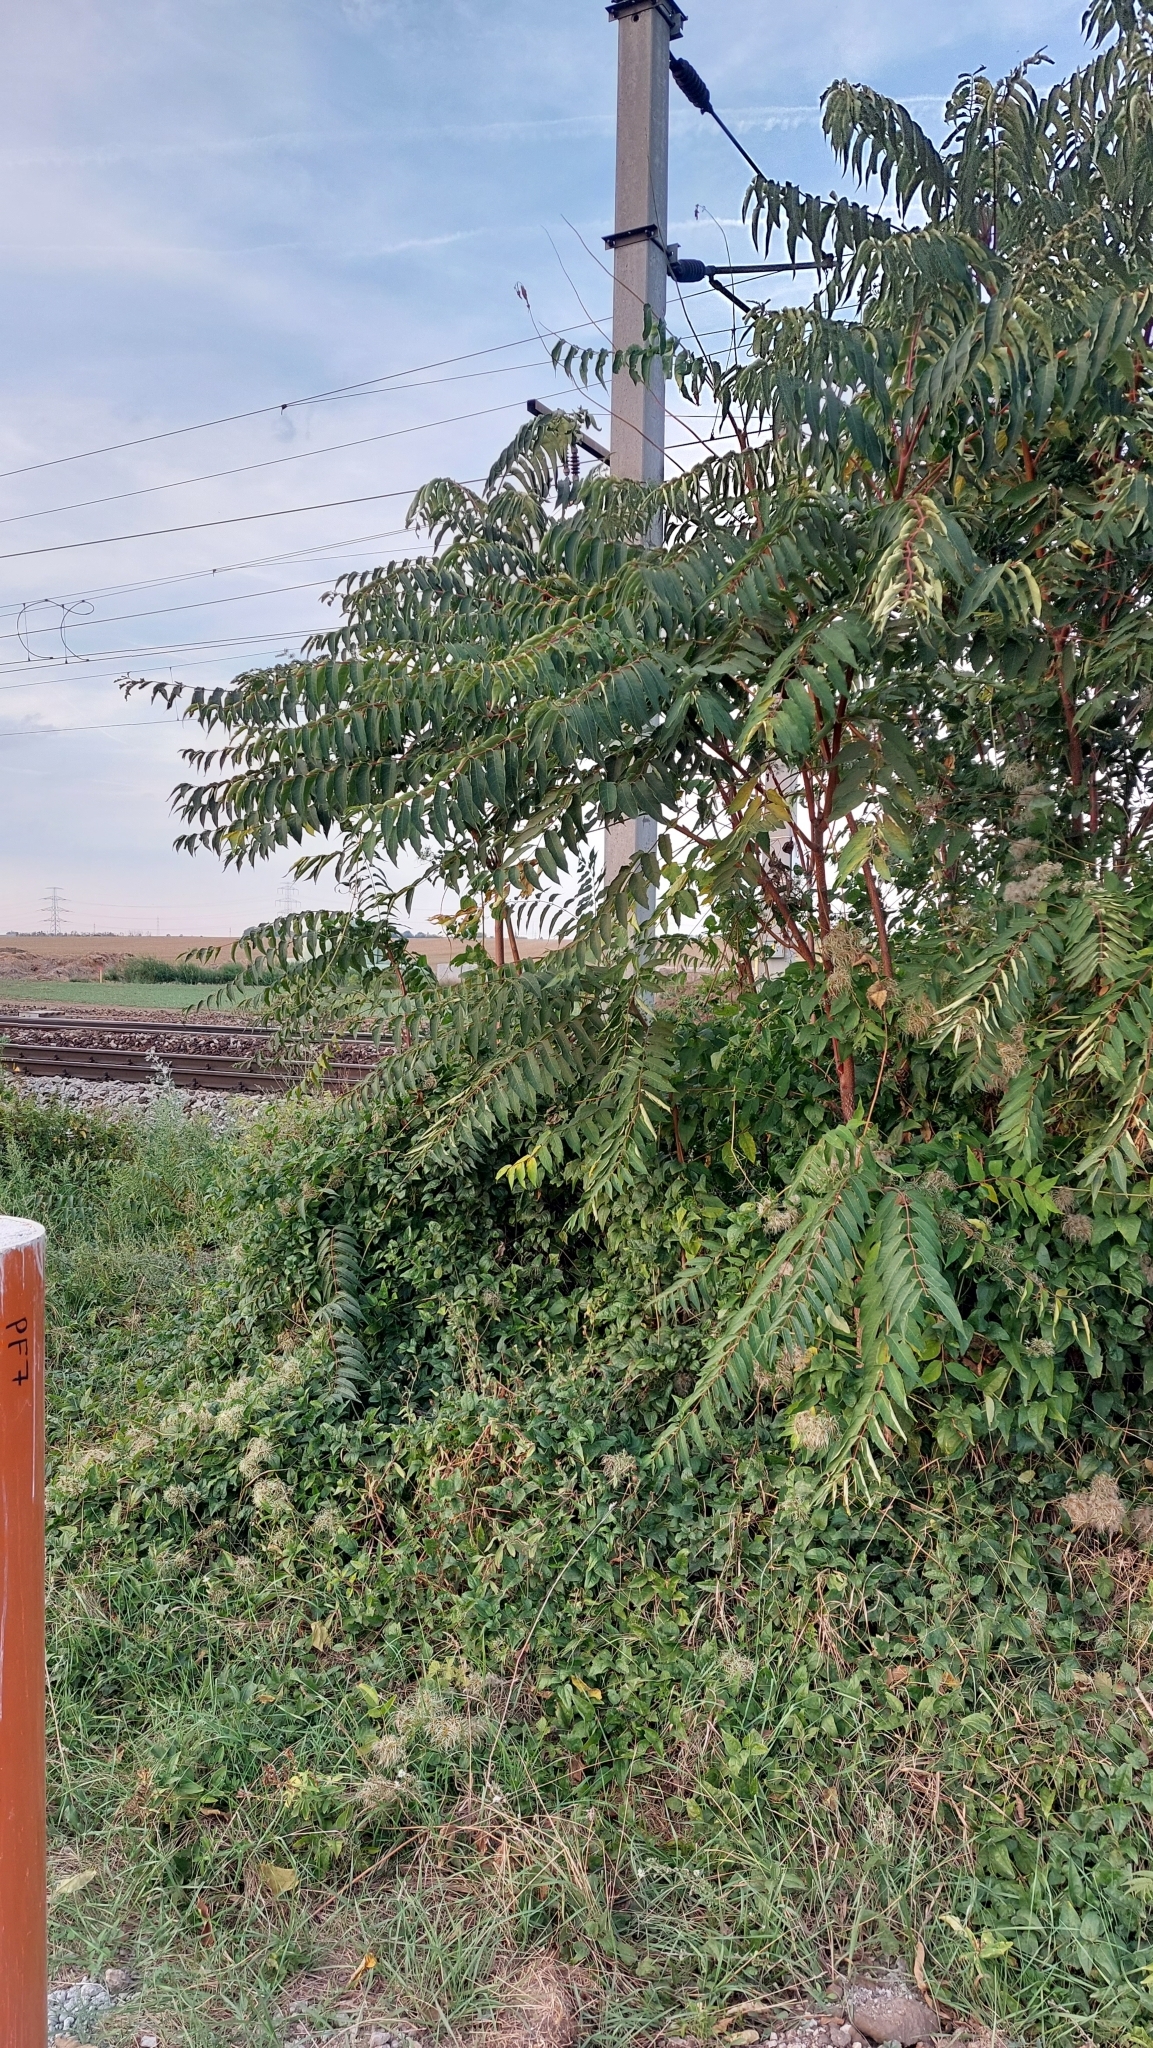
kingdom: Plantae
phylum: Tracheophyta
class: Magnoliopsida
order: Sapindales
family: Simaroubaceae
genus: Ailanthus
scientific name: Ailanthus altissima
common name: Tree-of-heaven
